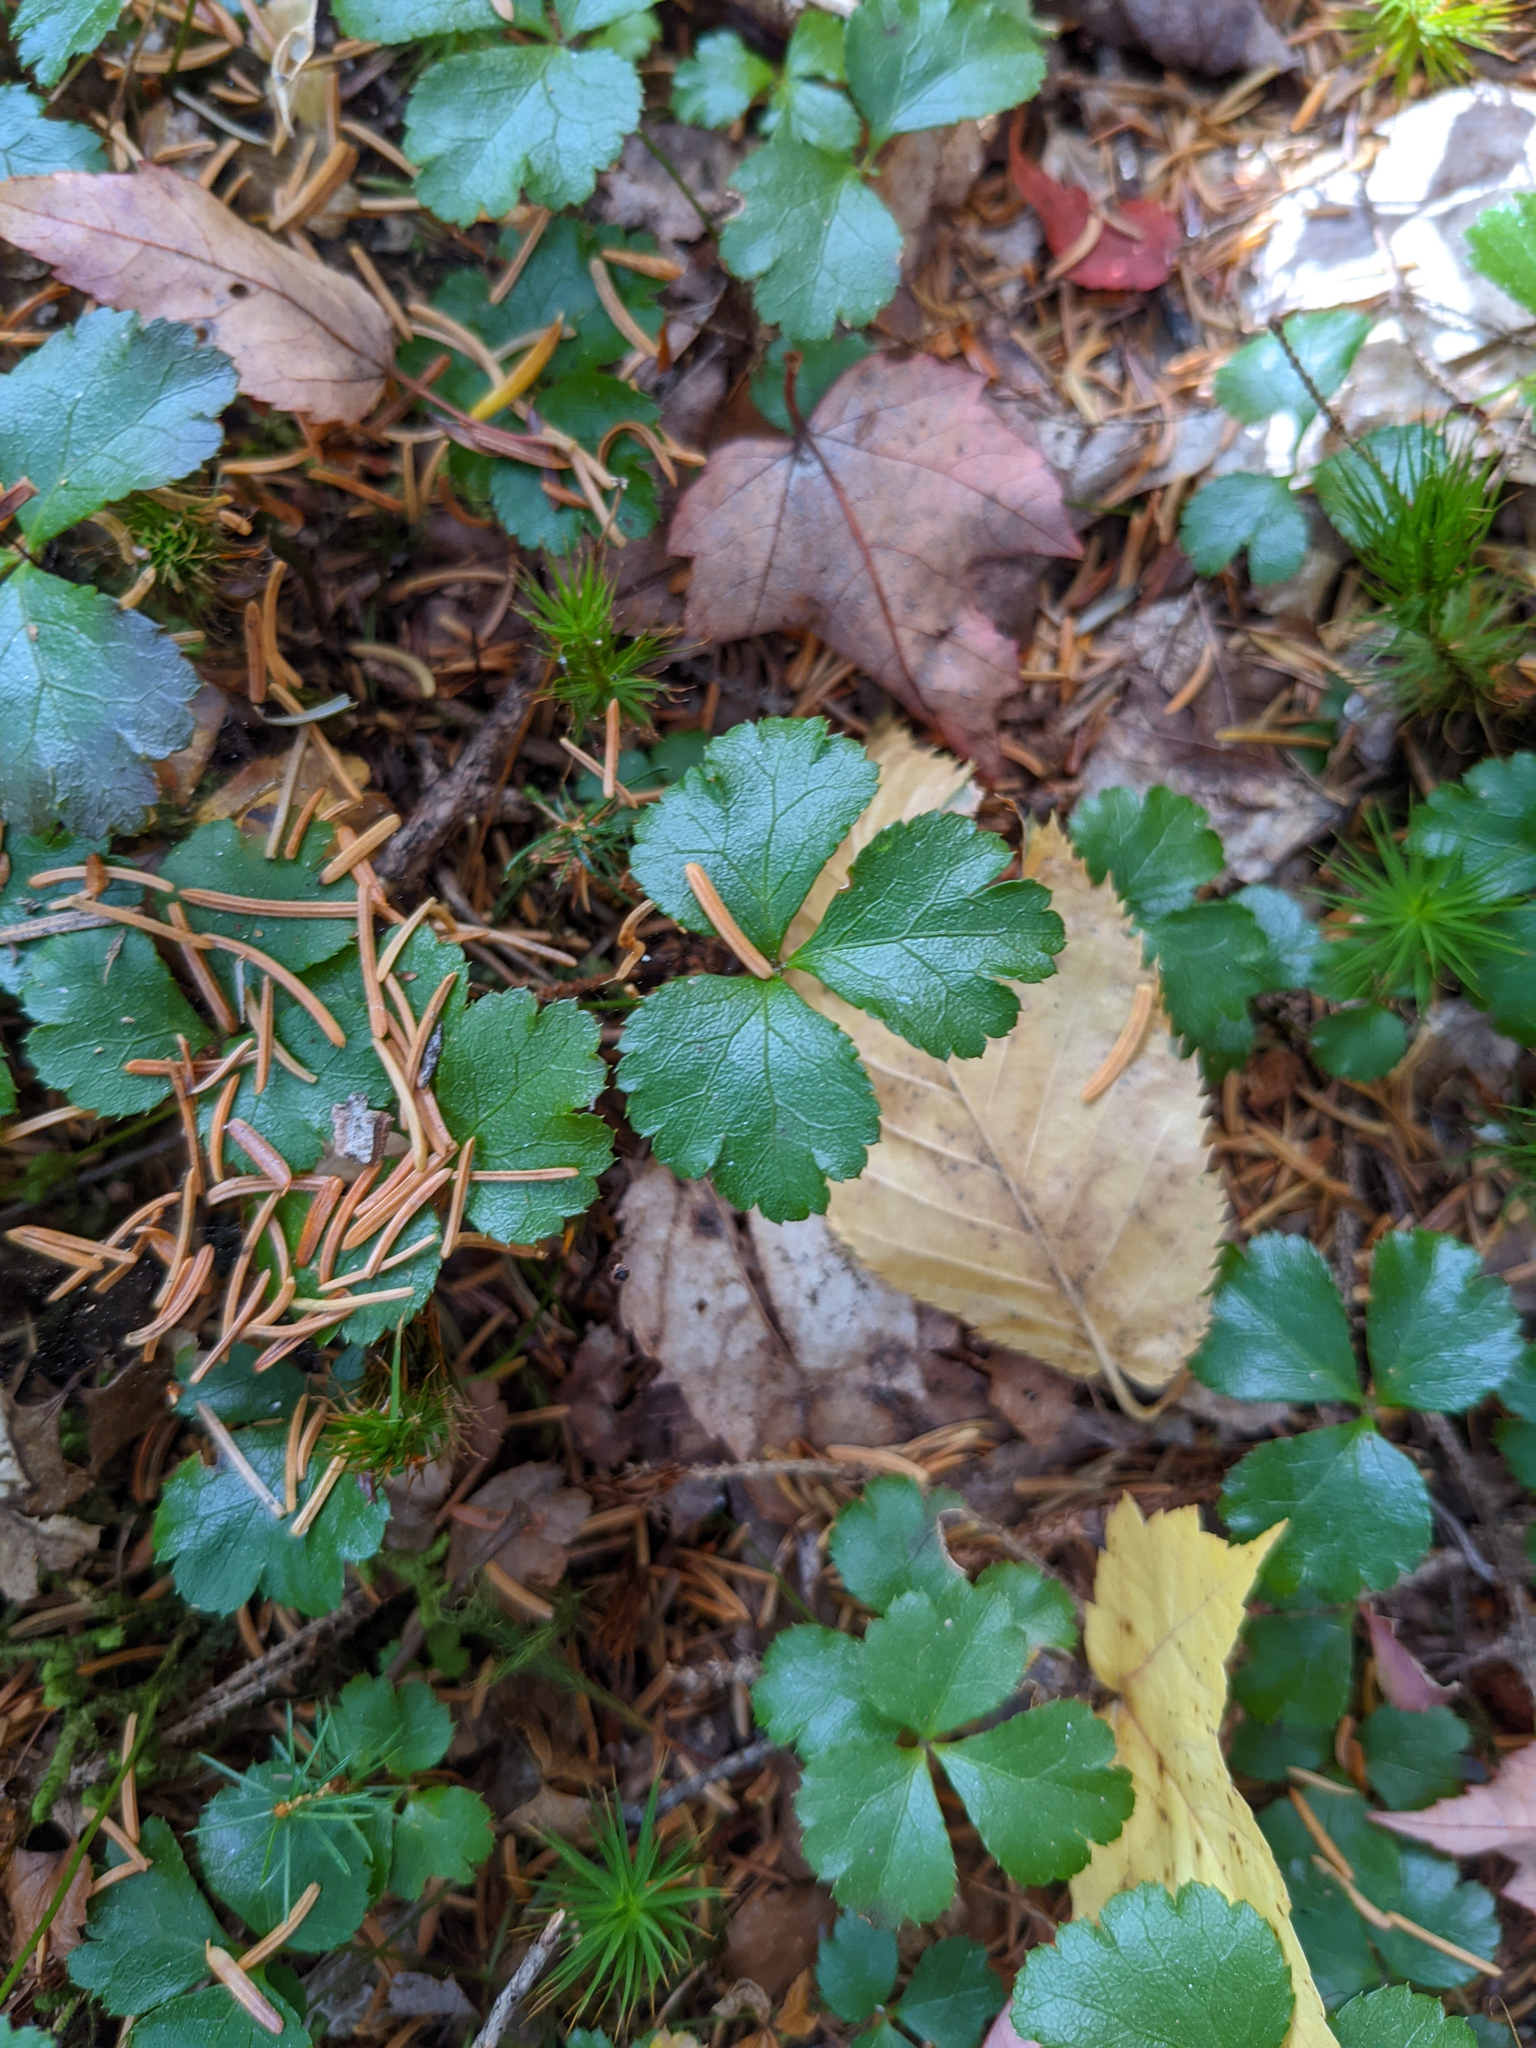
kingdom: Plantae
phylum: Tracheophyta
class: Magnoliopsida
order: Ranunculales
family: Ranunculaceae
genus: Coptis
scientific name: Coptis trifolia
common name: Canker-root
